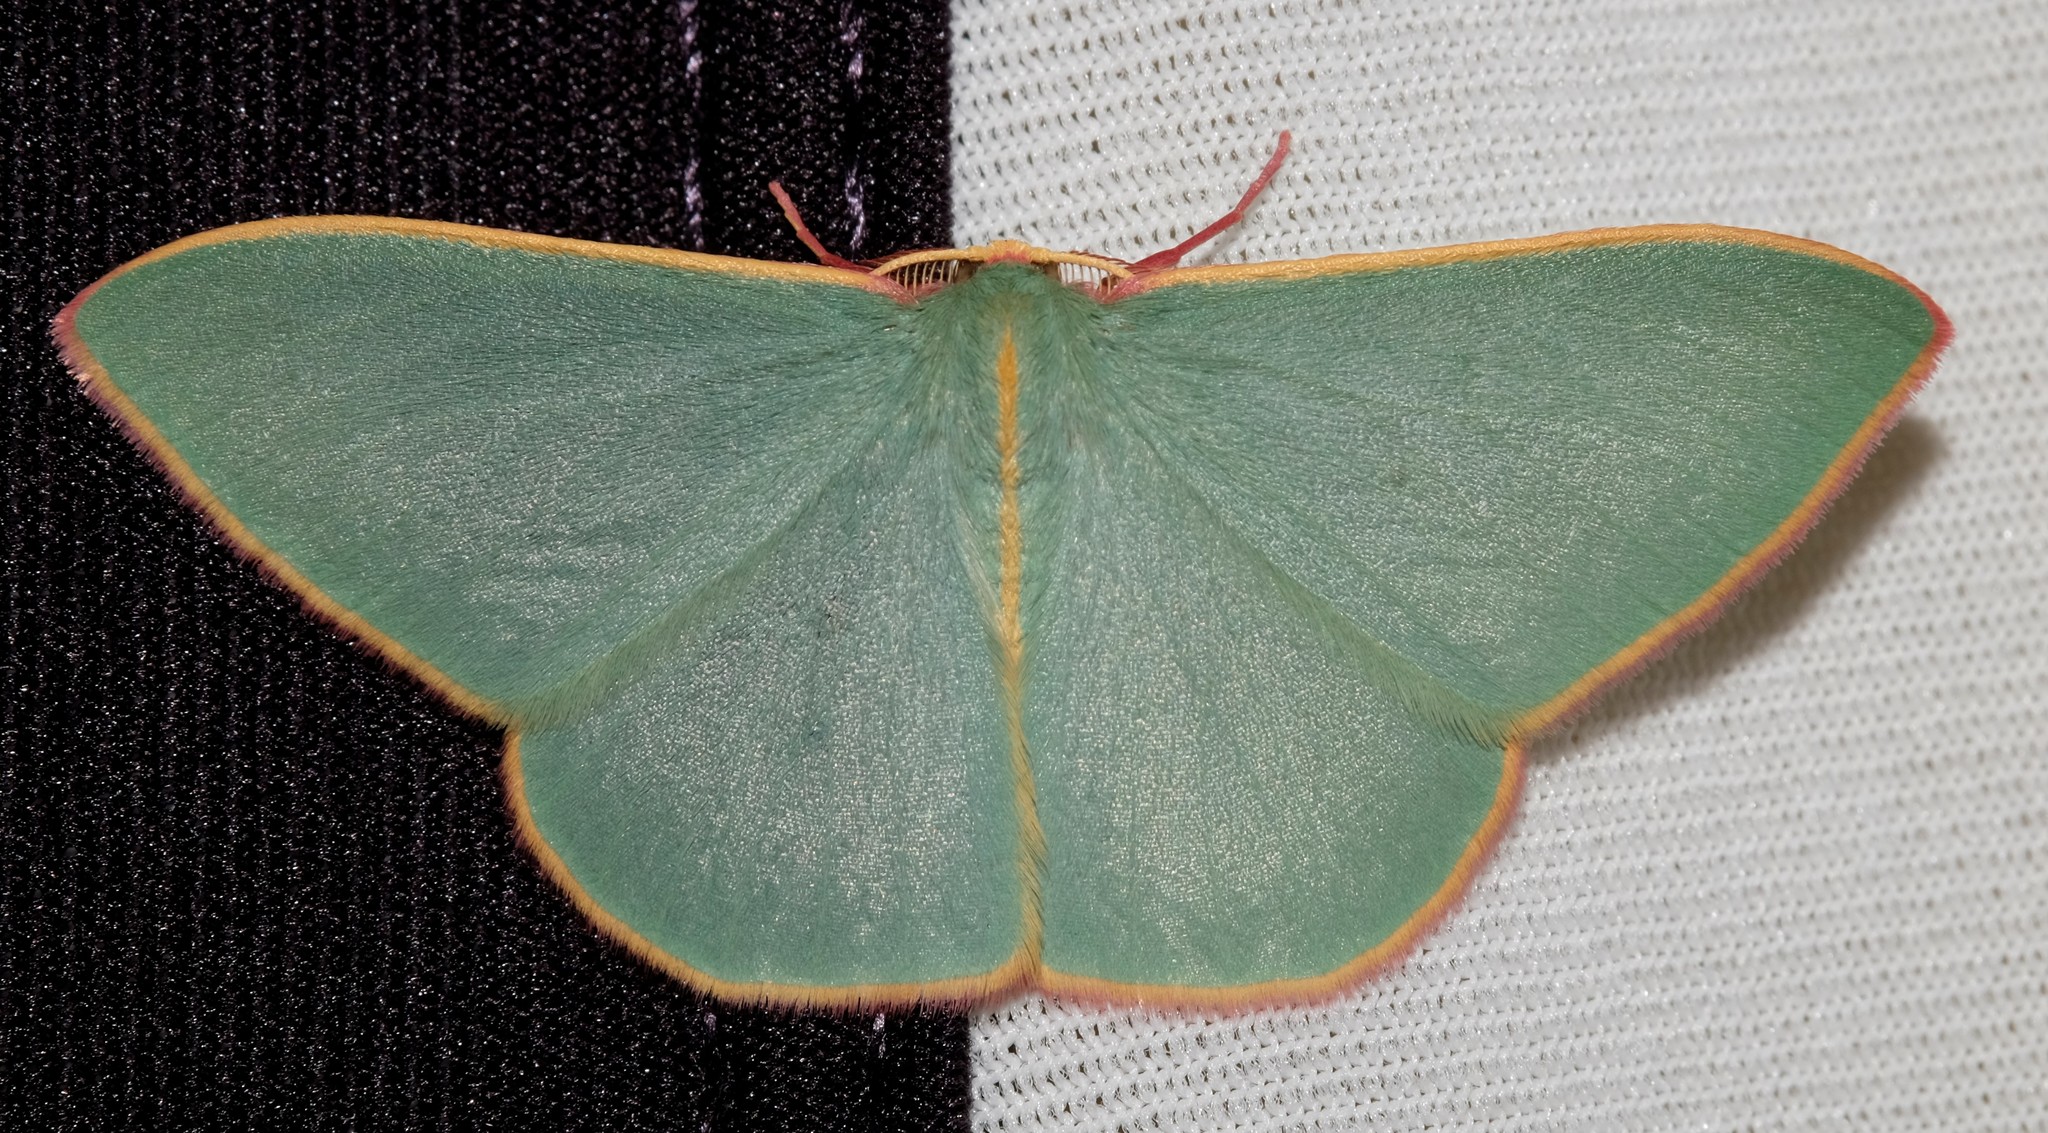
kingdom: Animalia
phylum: Arthropoda
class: Insecta
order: Lepidoptera
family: Geometridae
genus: Chlorocoma
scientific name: Chlorocoma assimilis
